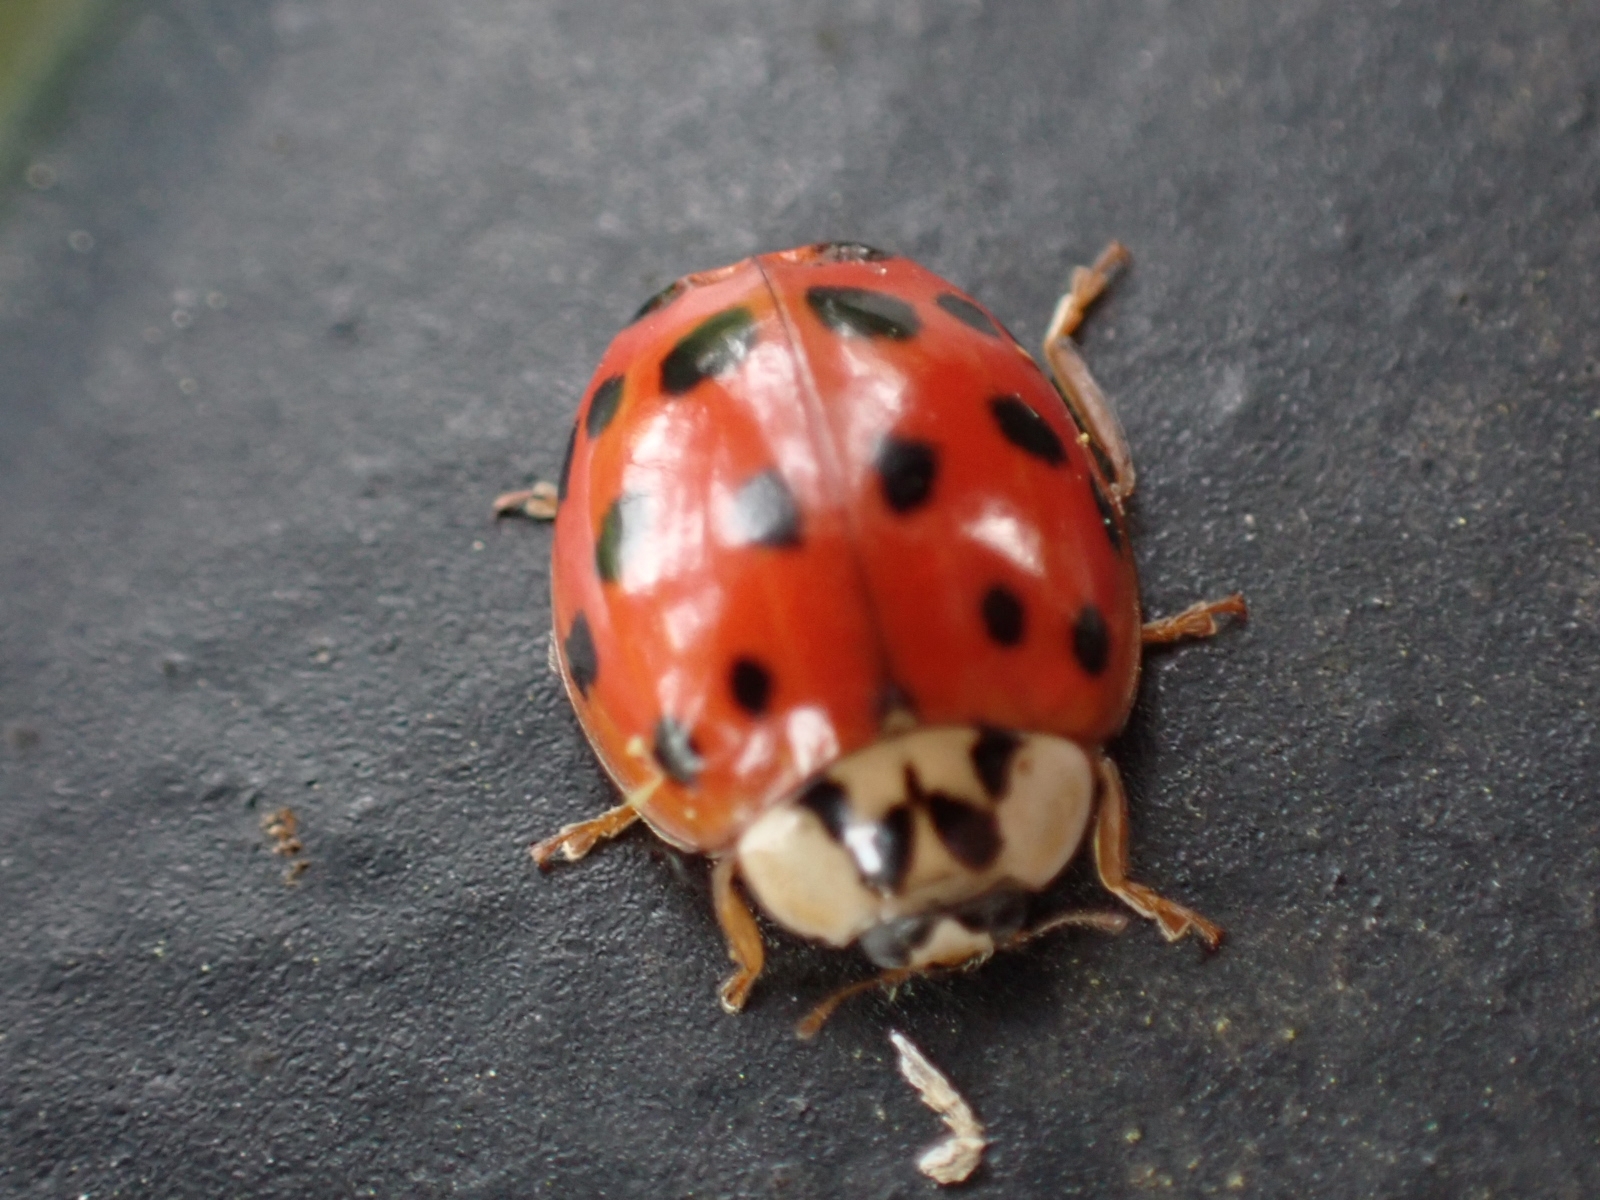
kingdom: Animalia
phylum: Arthropoda
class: Insecta
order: Coleoptera
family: Coccinellidae
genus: Harmonia
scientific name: Harmonia axyridis
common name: Harlequin ladybird
